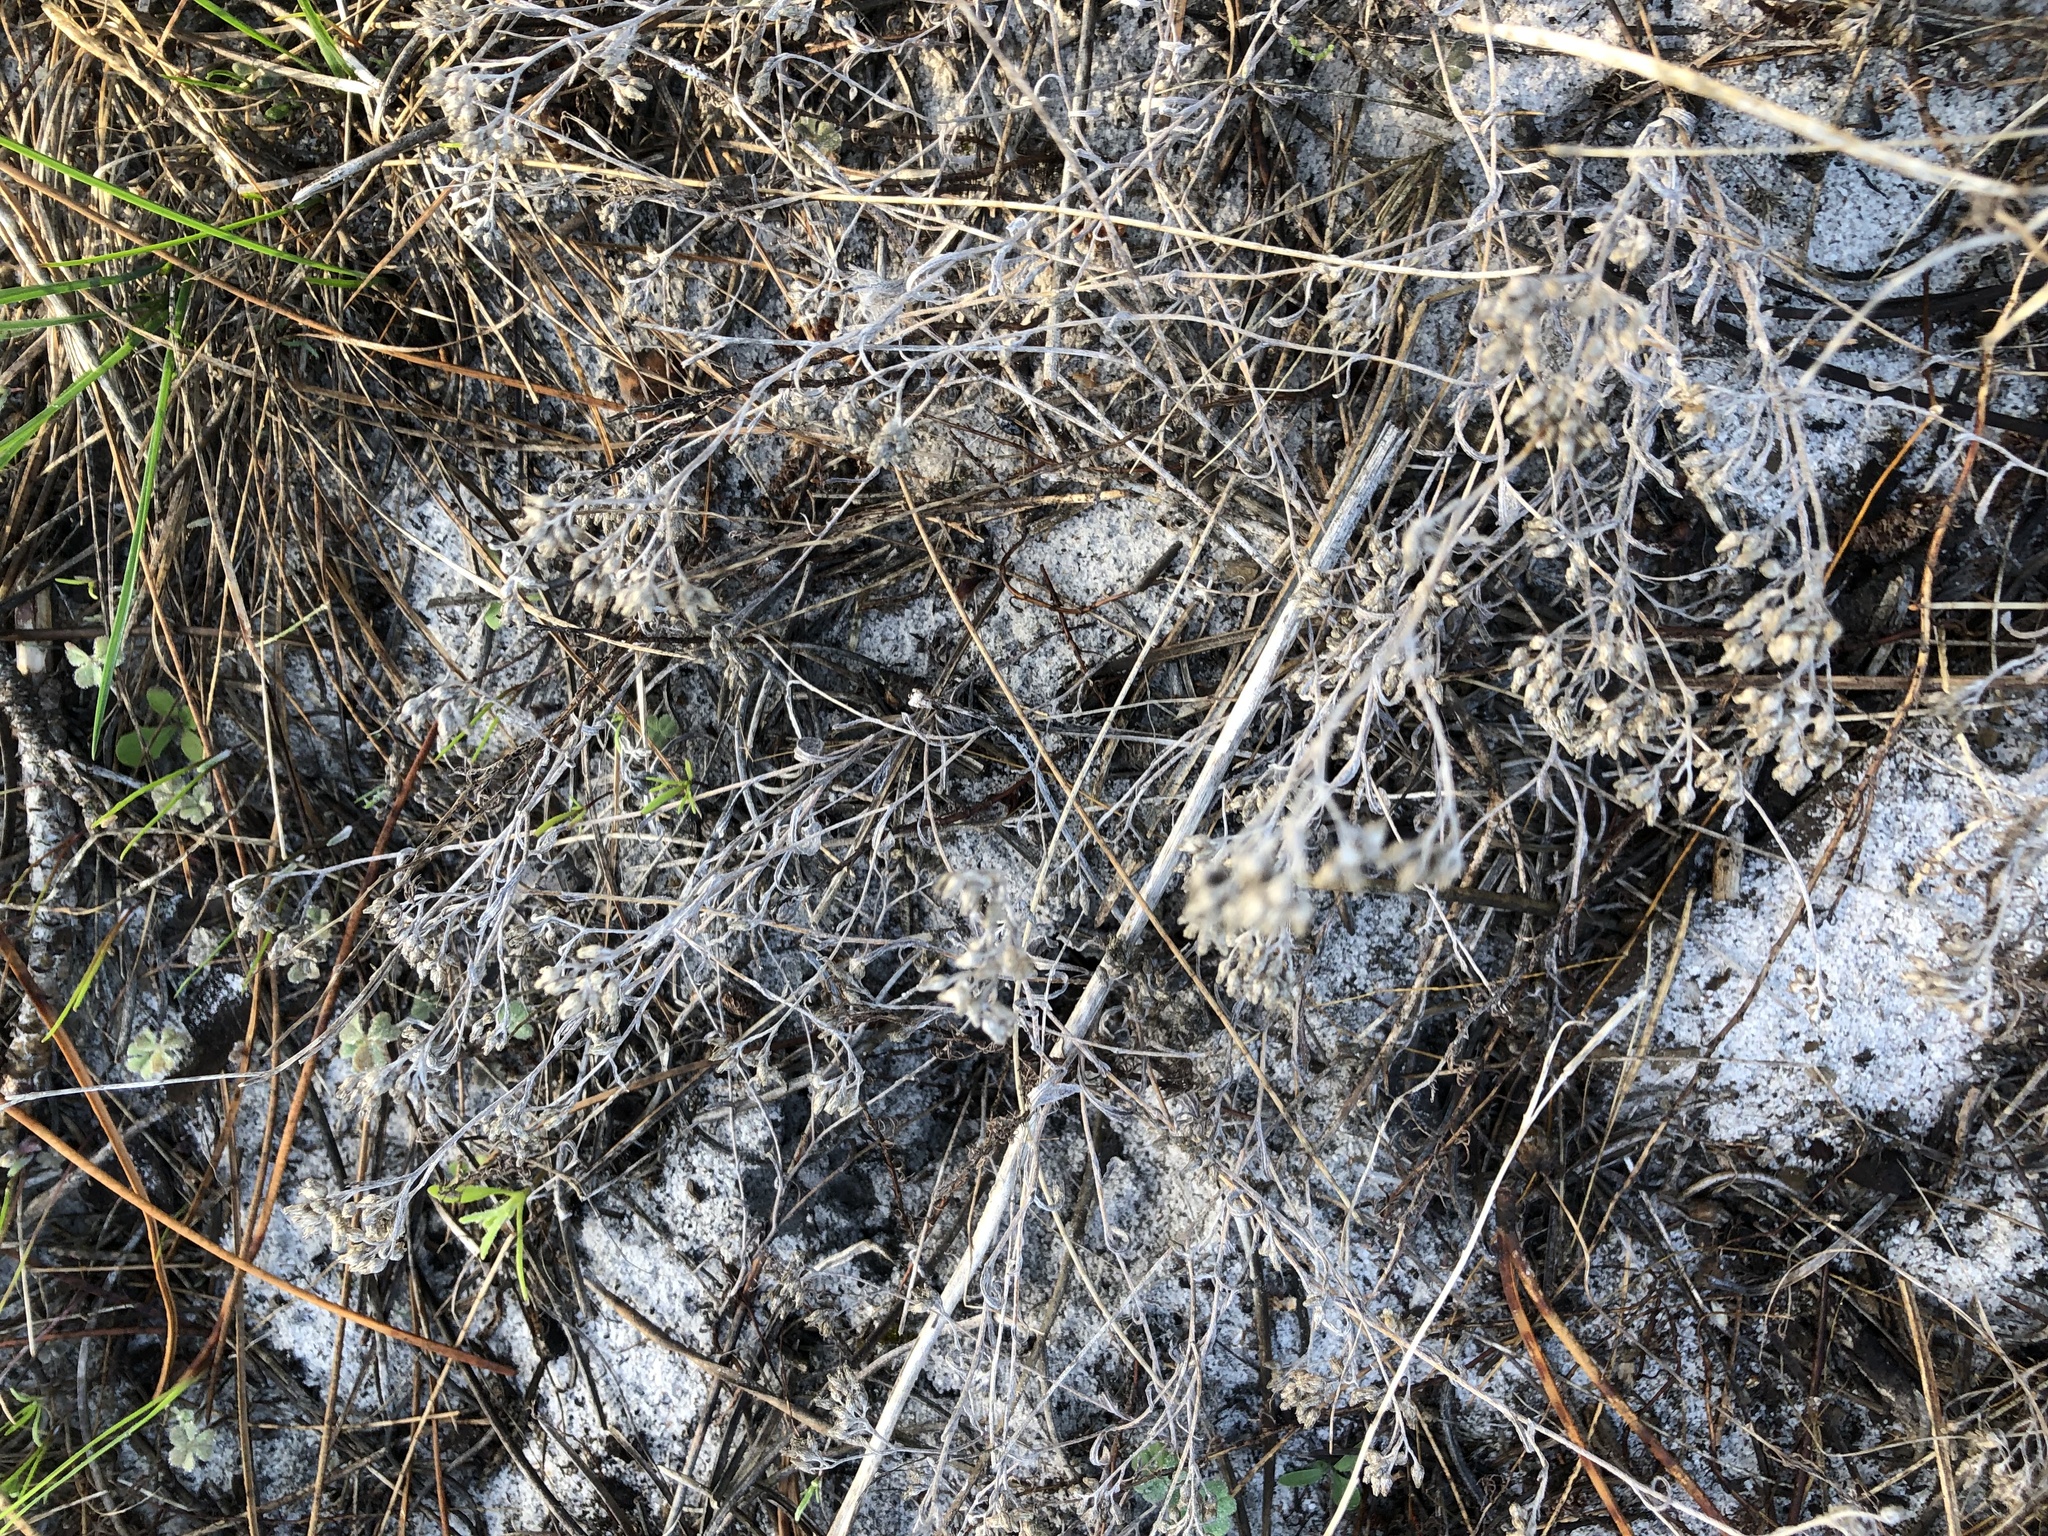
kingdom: Plantae
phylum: Tracheophyta
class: Magnoliopsida
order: Asterales
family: Asteraceae
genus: Helichrysum
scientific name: Helichrysum litorale
